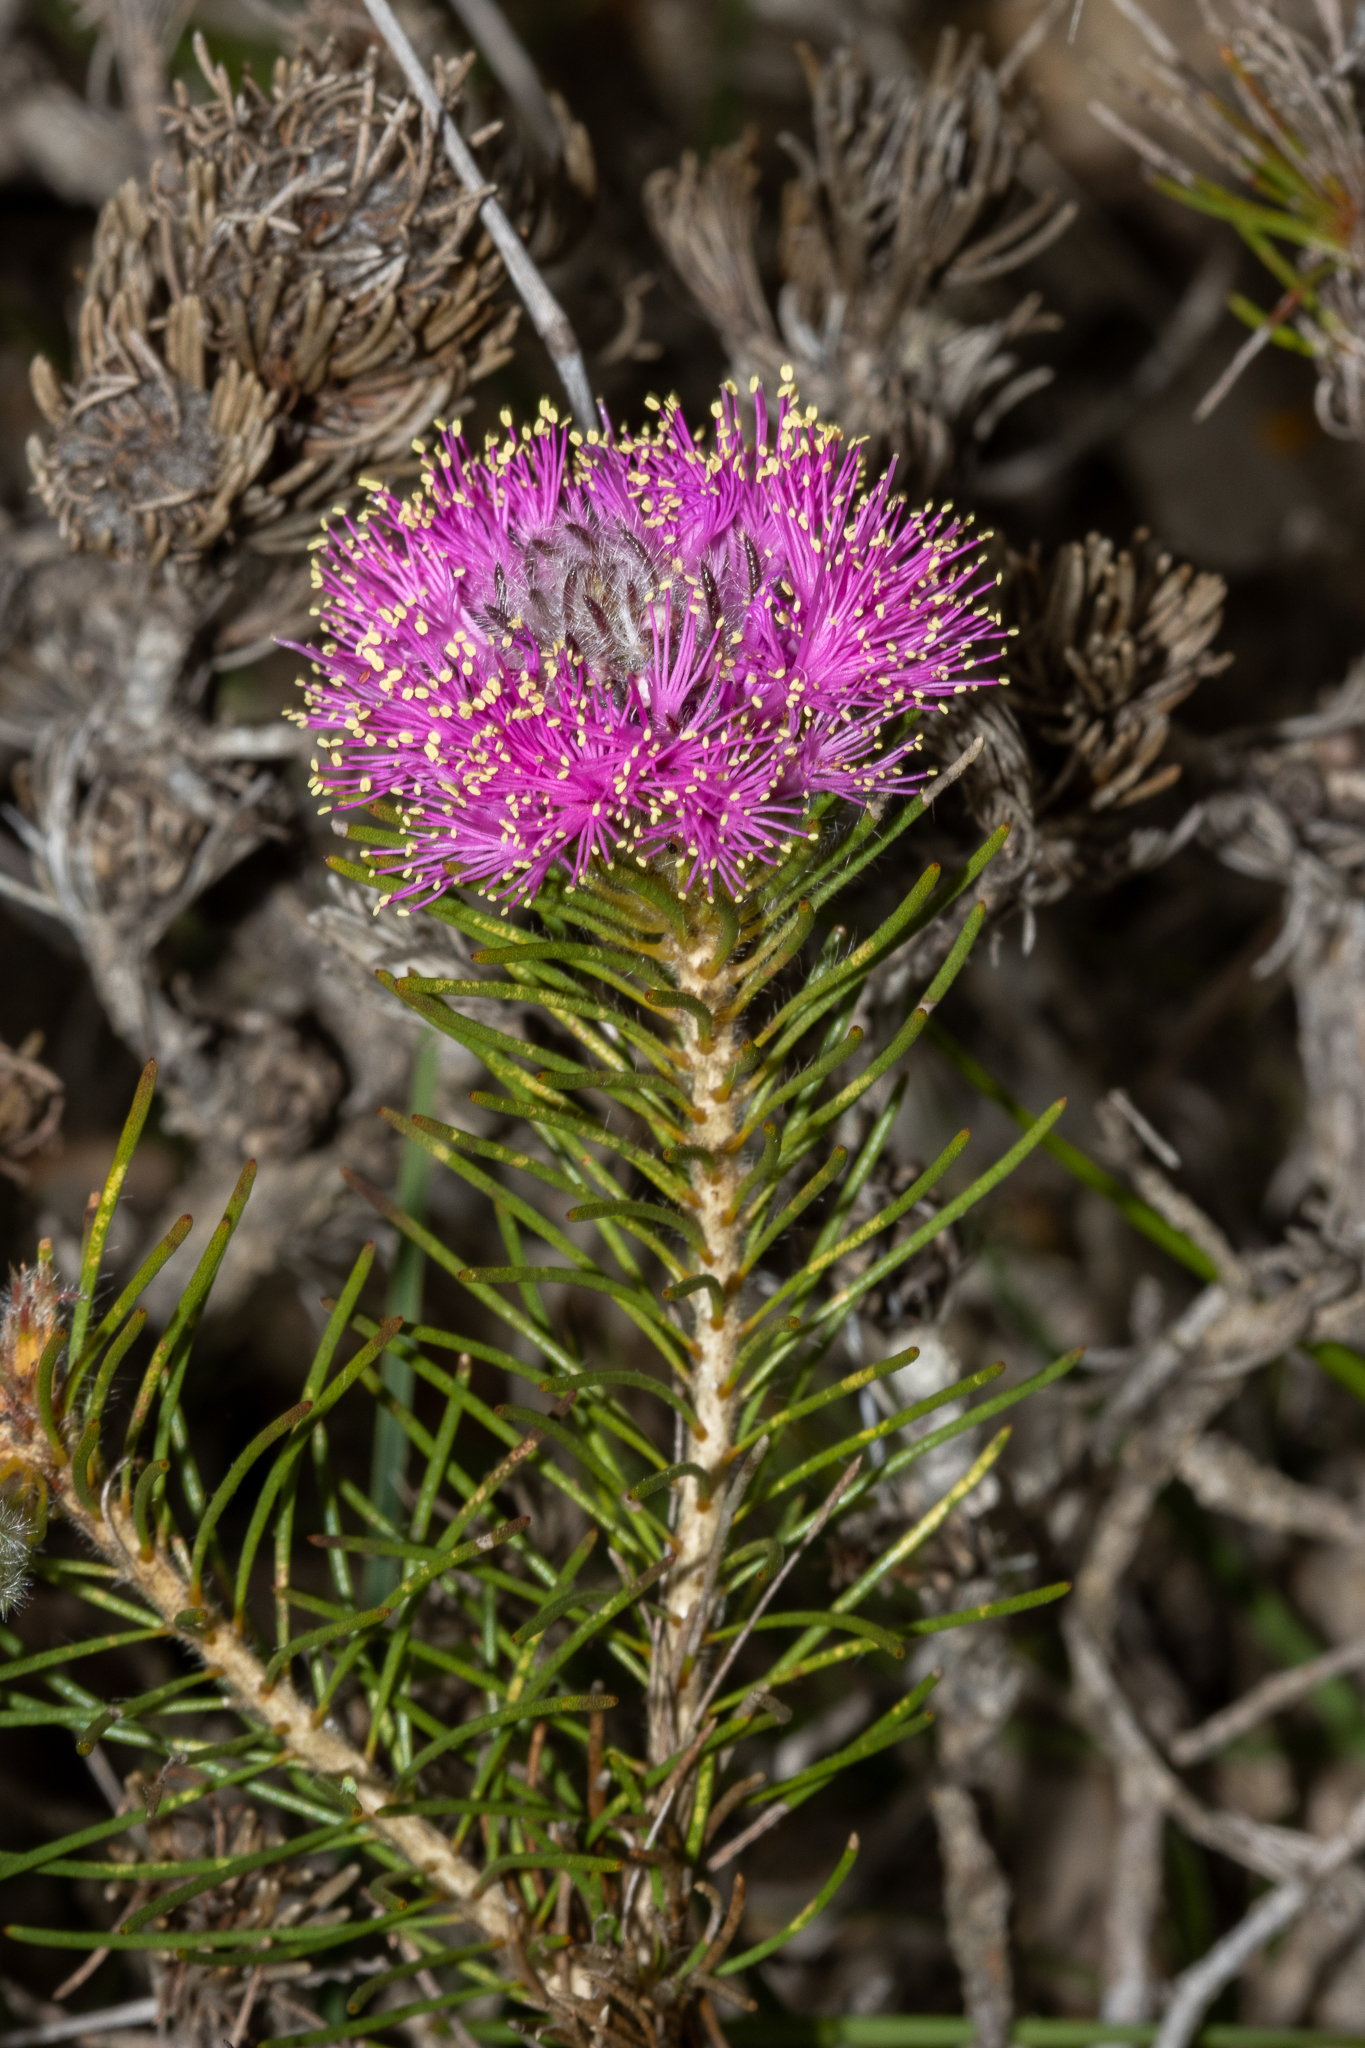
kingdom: Plantae
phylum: Tracheophyta
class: Magnoliopsida
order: Myrtales
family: Myrtaceae
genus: Melaleuca
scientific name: Melaleuca trichophylla
